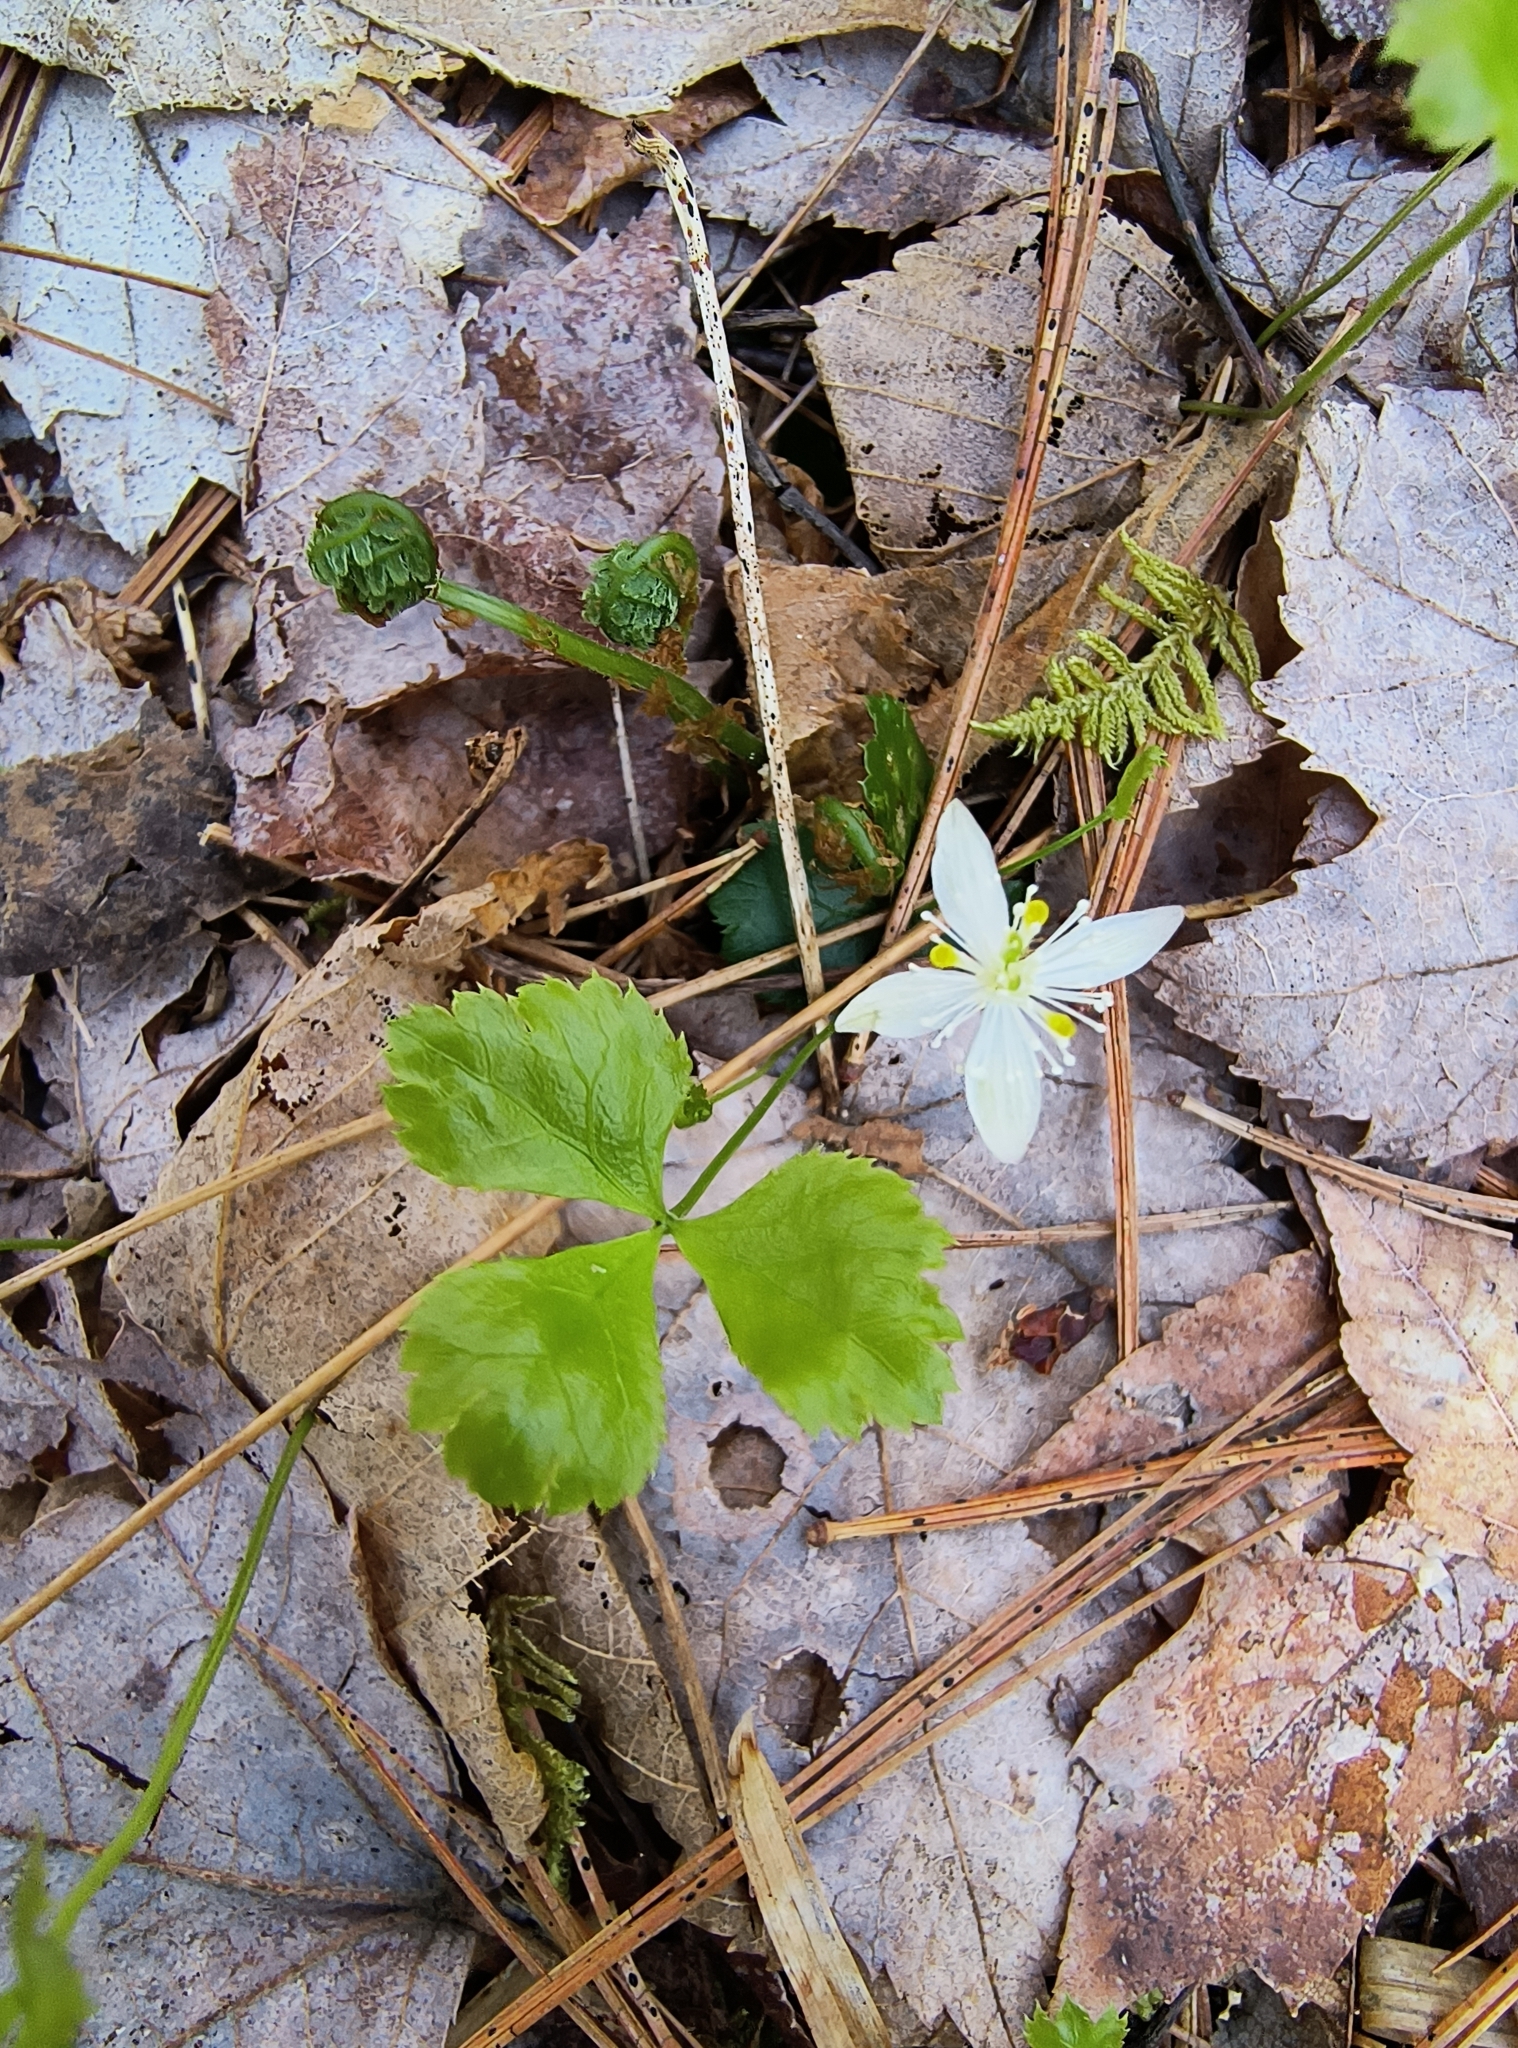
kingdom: Plantae
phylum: Tracheophyta
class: Magnoliopsida
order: Ranunculales
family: Ranunculaceae
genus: Coptis
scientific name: Coptis trifolia
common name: Canker-root
